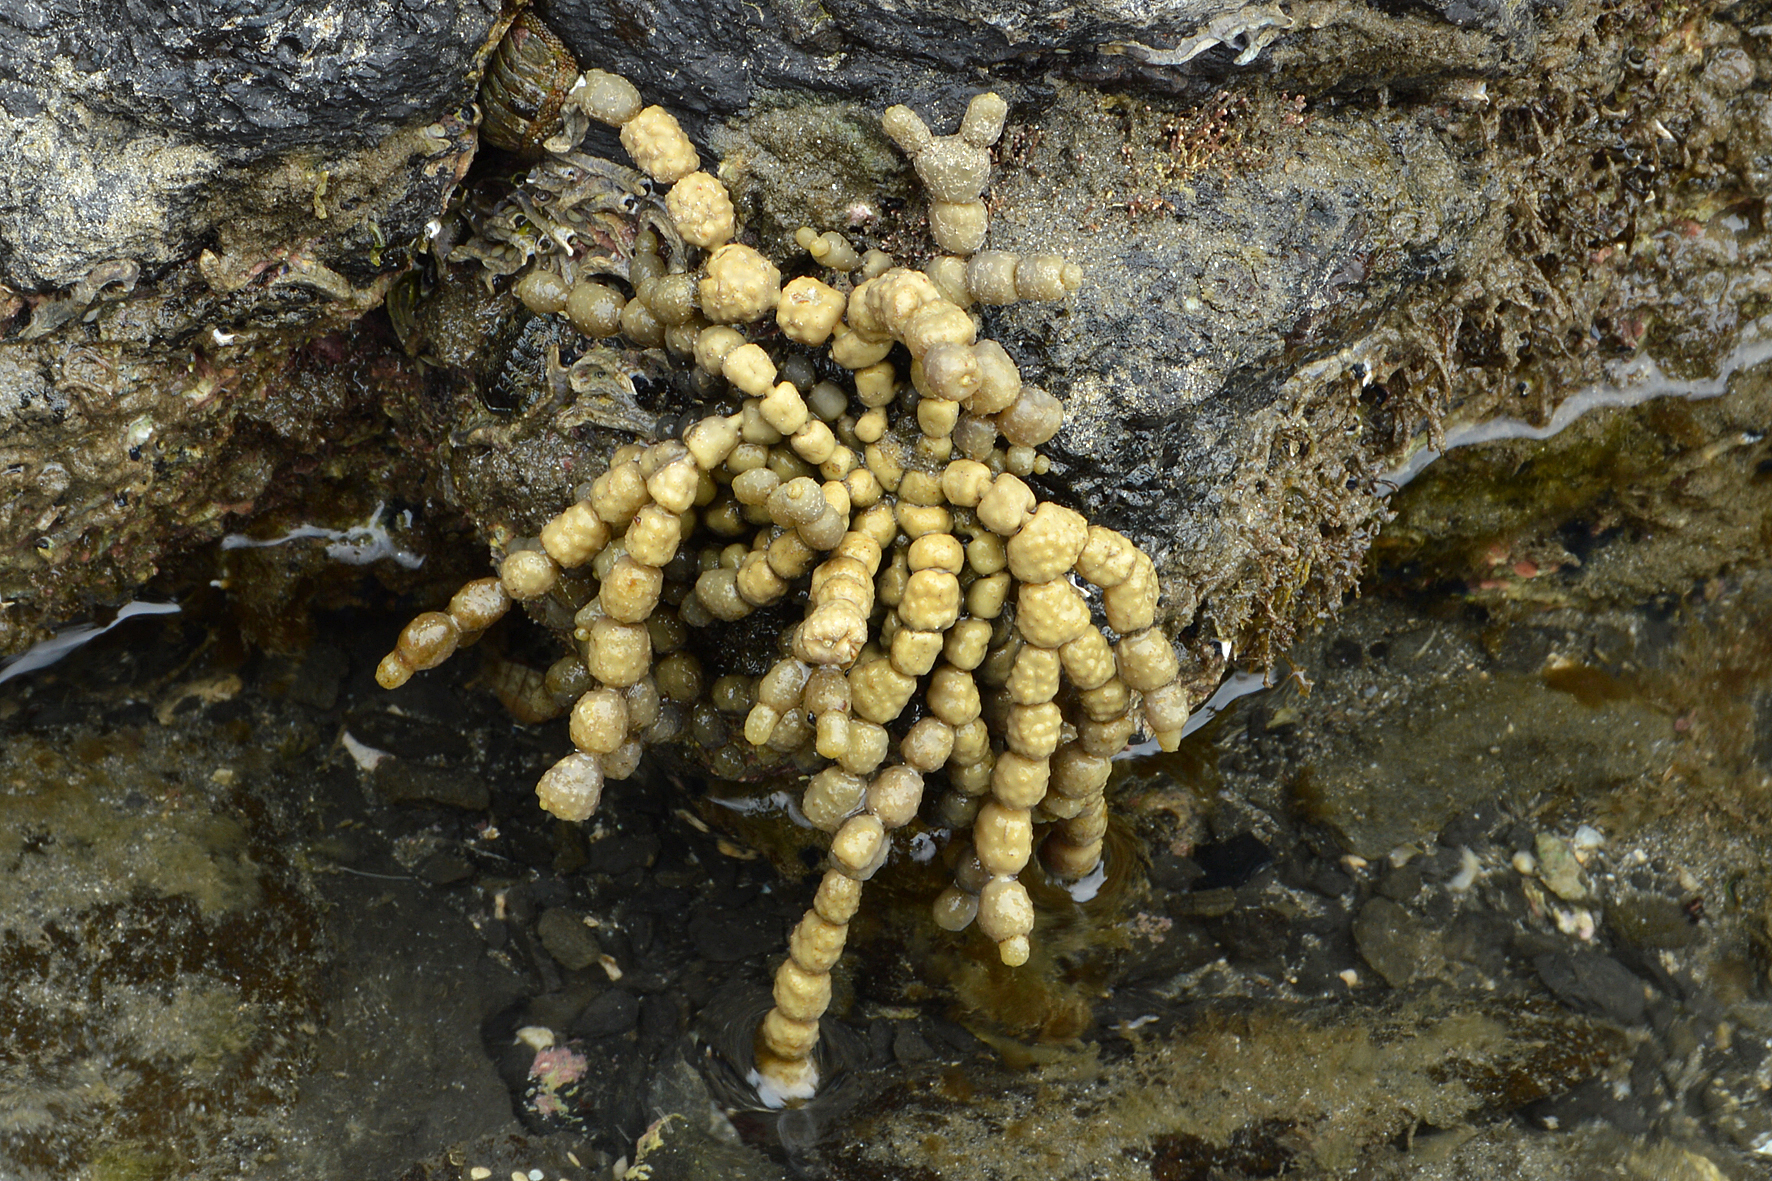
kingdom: Chromista
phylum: Ochrophyta
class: Phaeophyceae
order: Fucales
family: Hormosiraceae
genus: Hormosira
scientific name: Hormosira banksii
